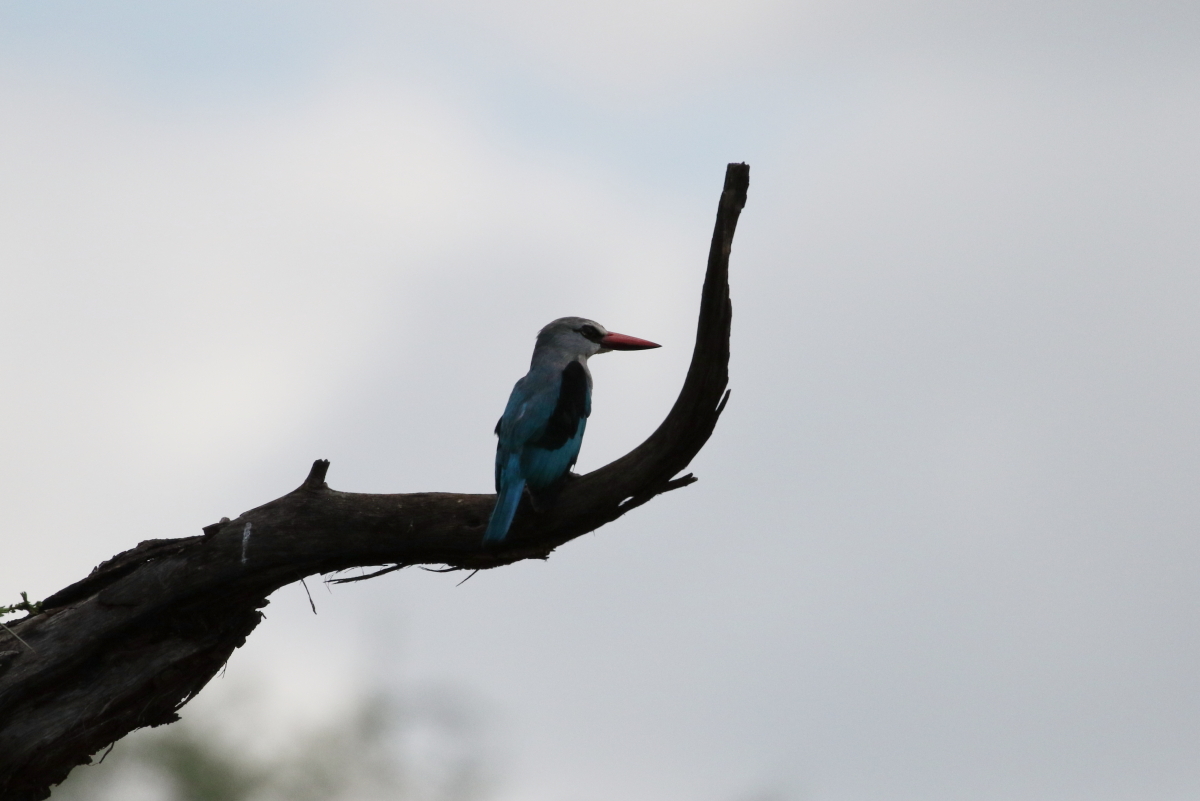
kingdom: Animalia
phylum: Chordata
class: Aves
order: Coraciiformes
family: Alcedinidae
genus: Halcyon
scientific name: Halcyon senegalensis
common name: Woodland kingfisher
